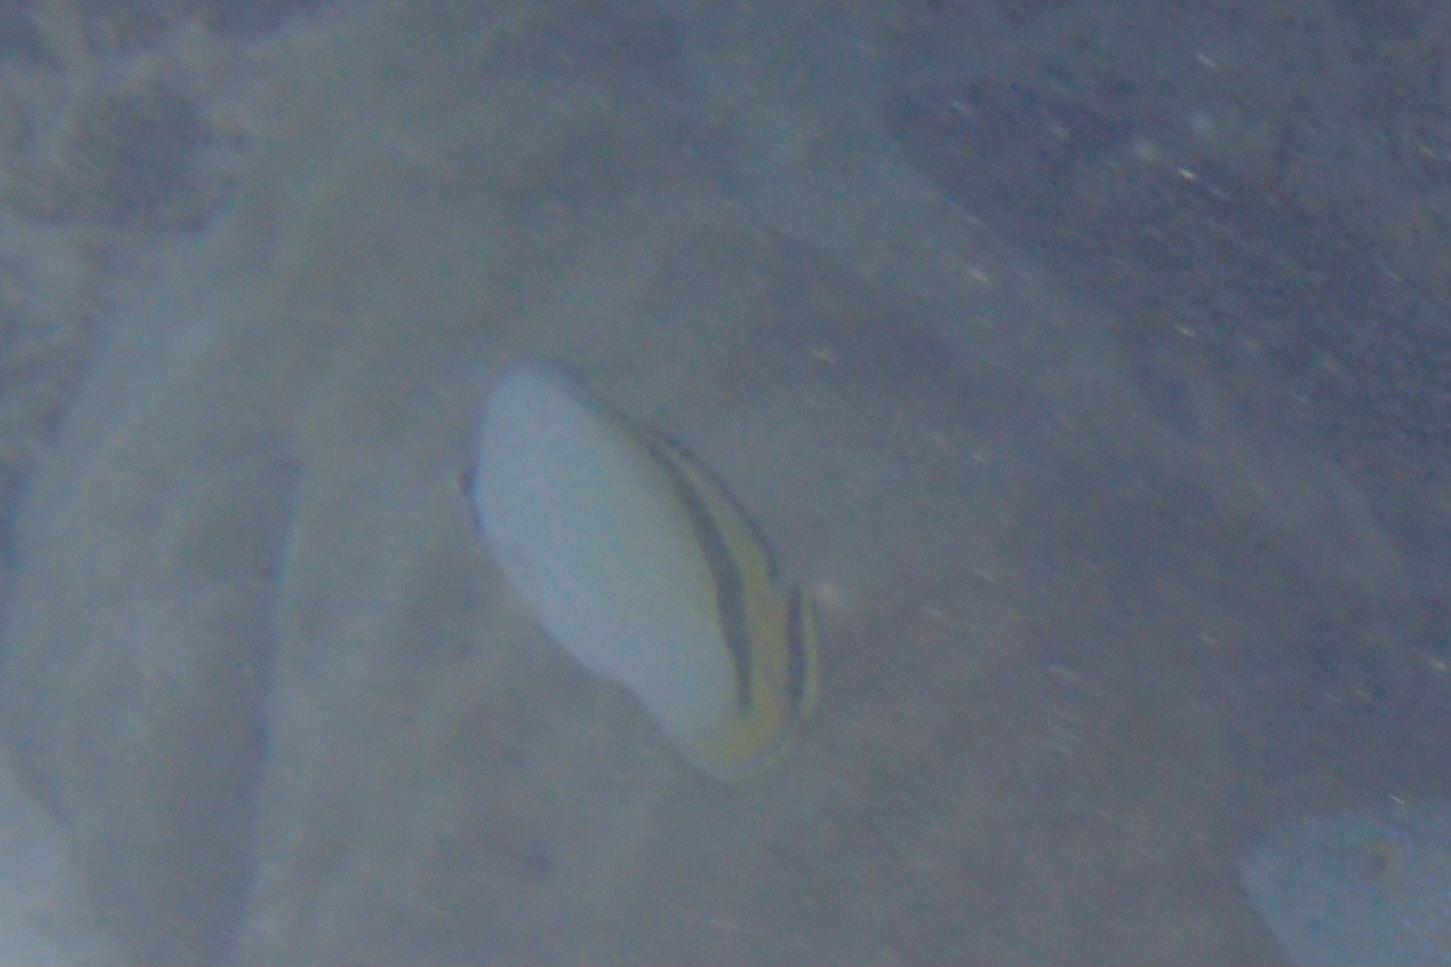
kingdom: Animalia
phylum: Chordata
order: Perciformes
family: Chaetodontidae
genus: Chaetodon
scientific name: Chaetodon vagabundus
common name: Vagabond butterflyfish
